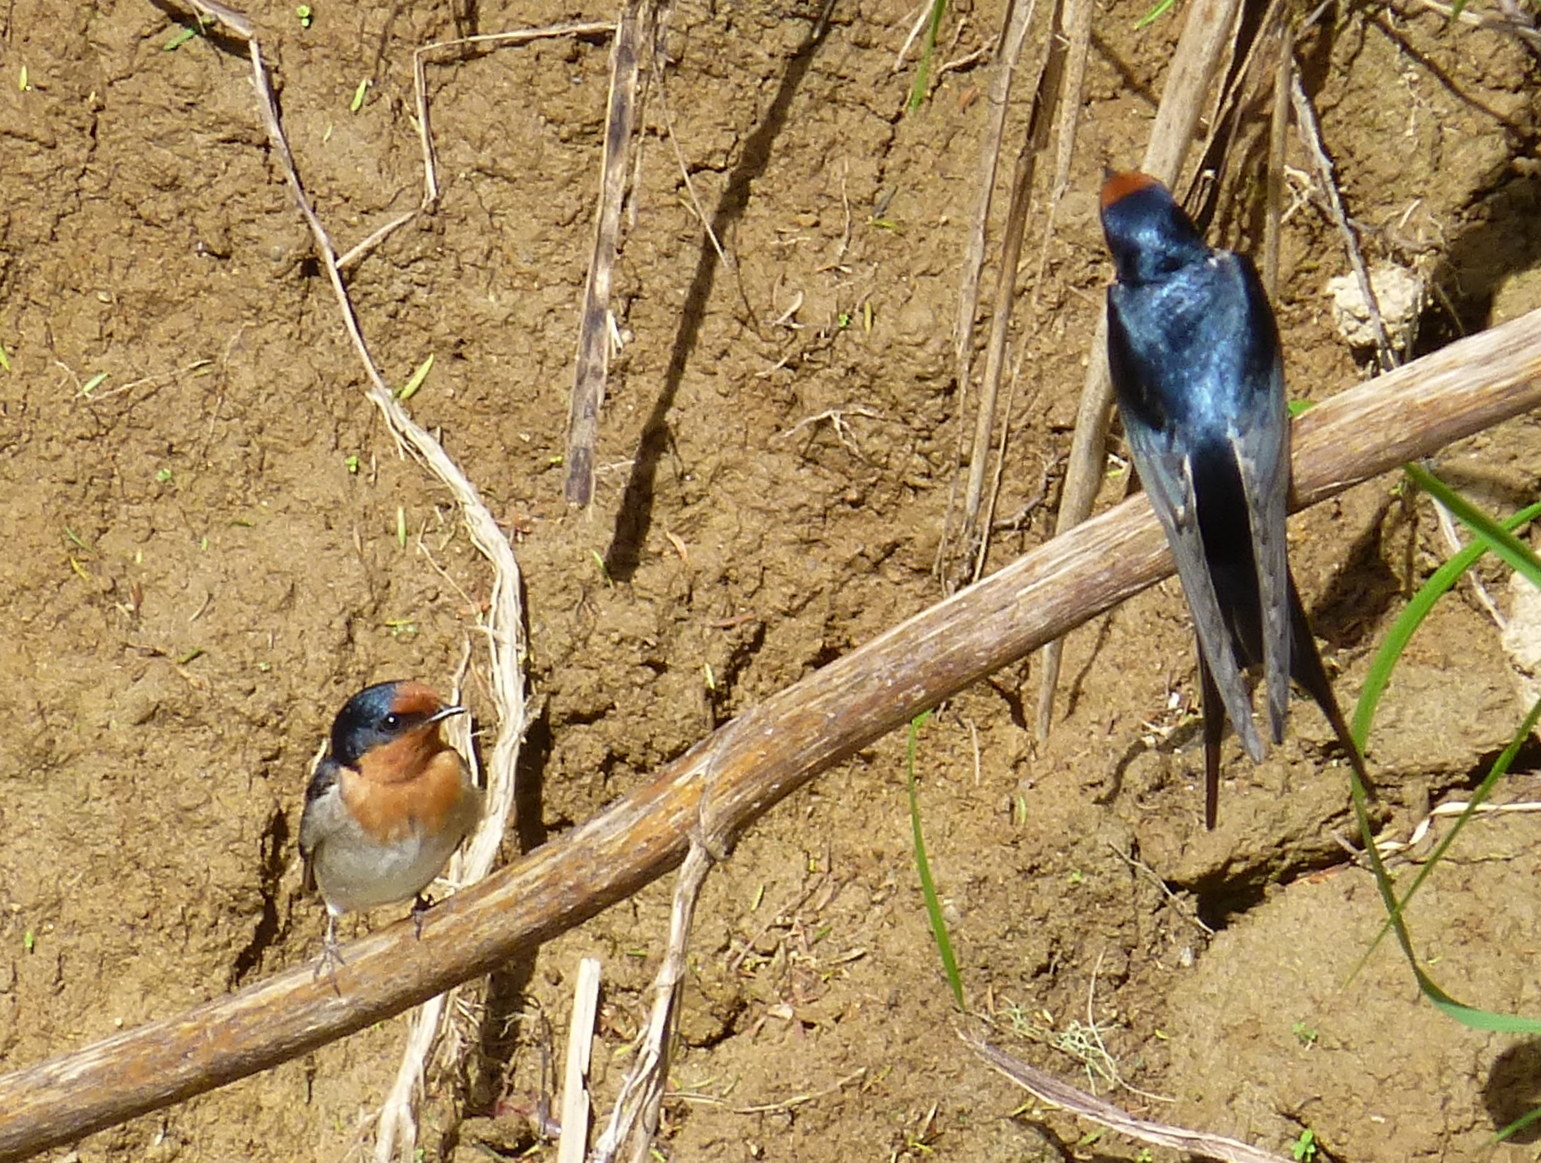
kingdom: Animalia
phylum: Chordata
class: Aves
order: Passeriformes
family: Hirundinidae
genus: Hirundo
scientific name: Hirundo neoxena
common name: Welcome swallow
